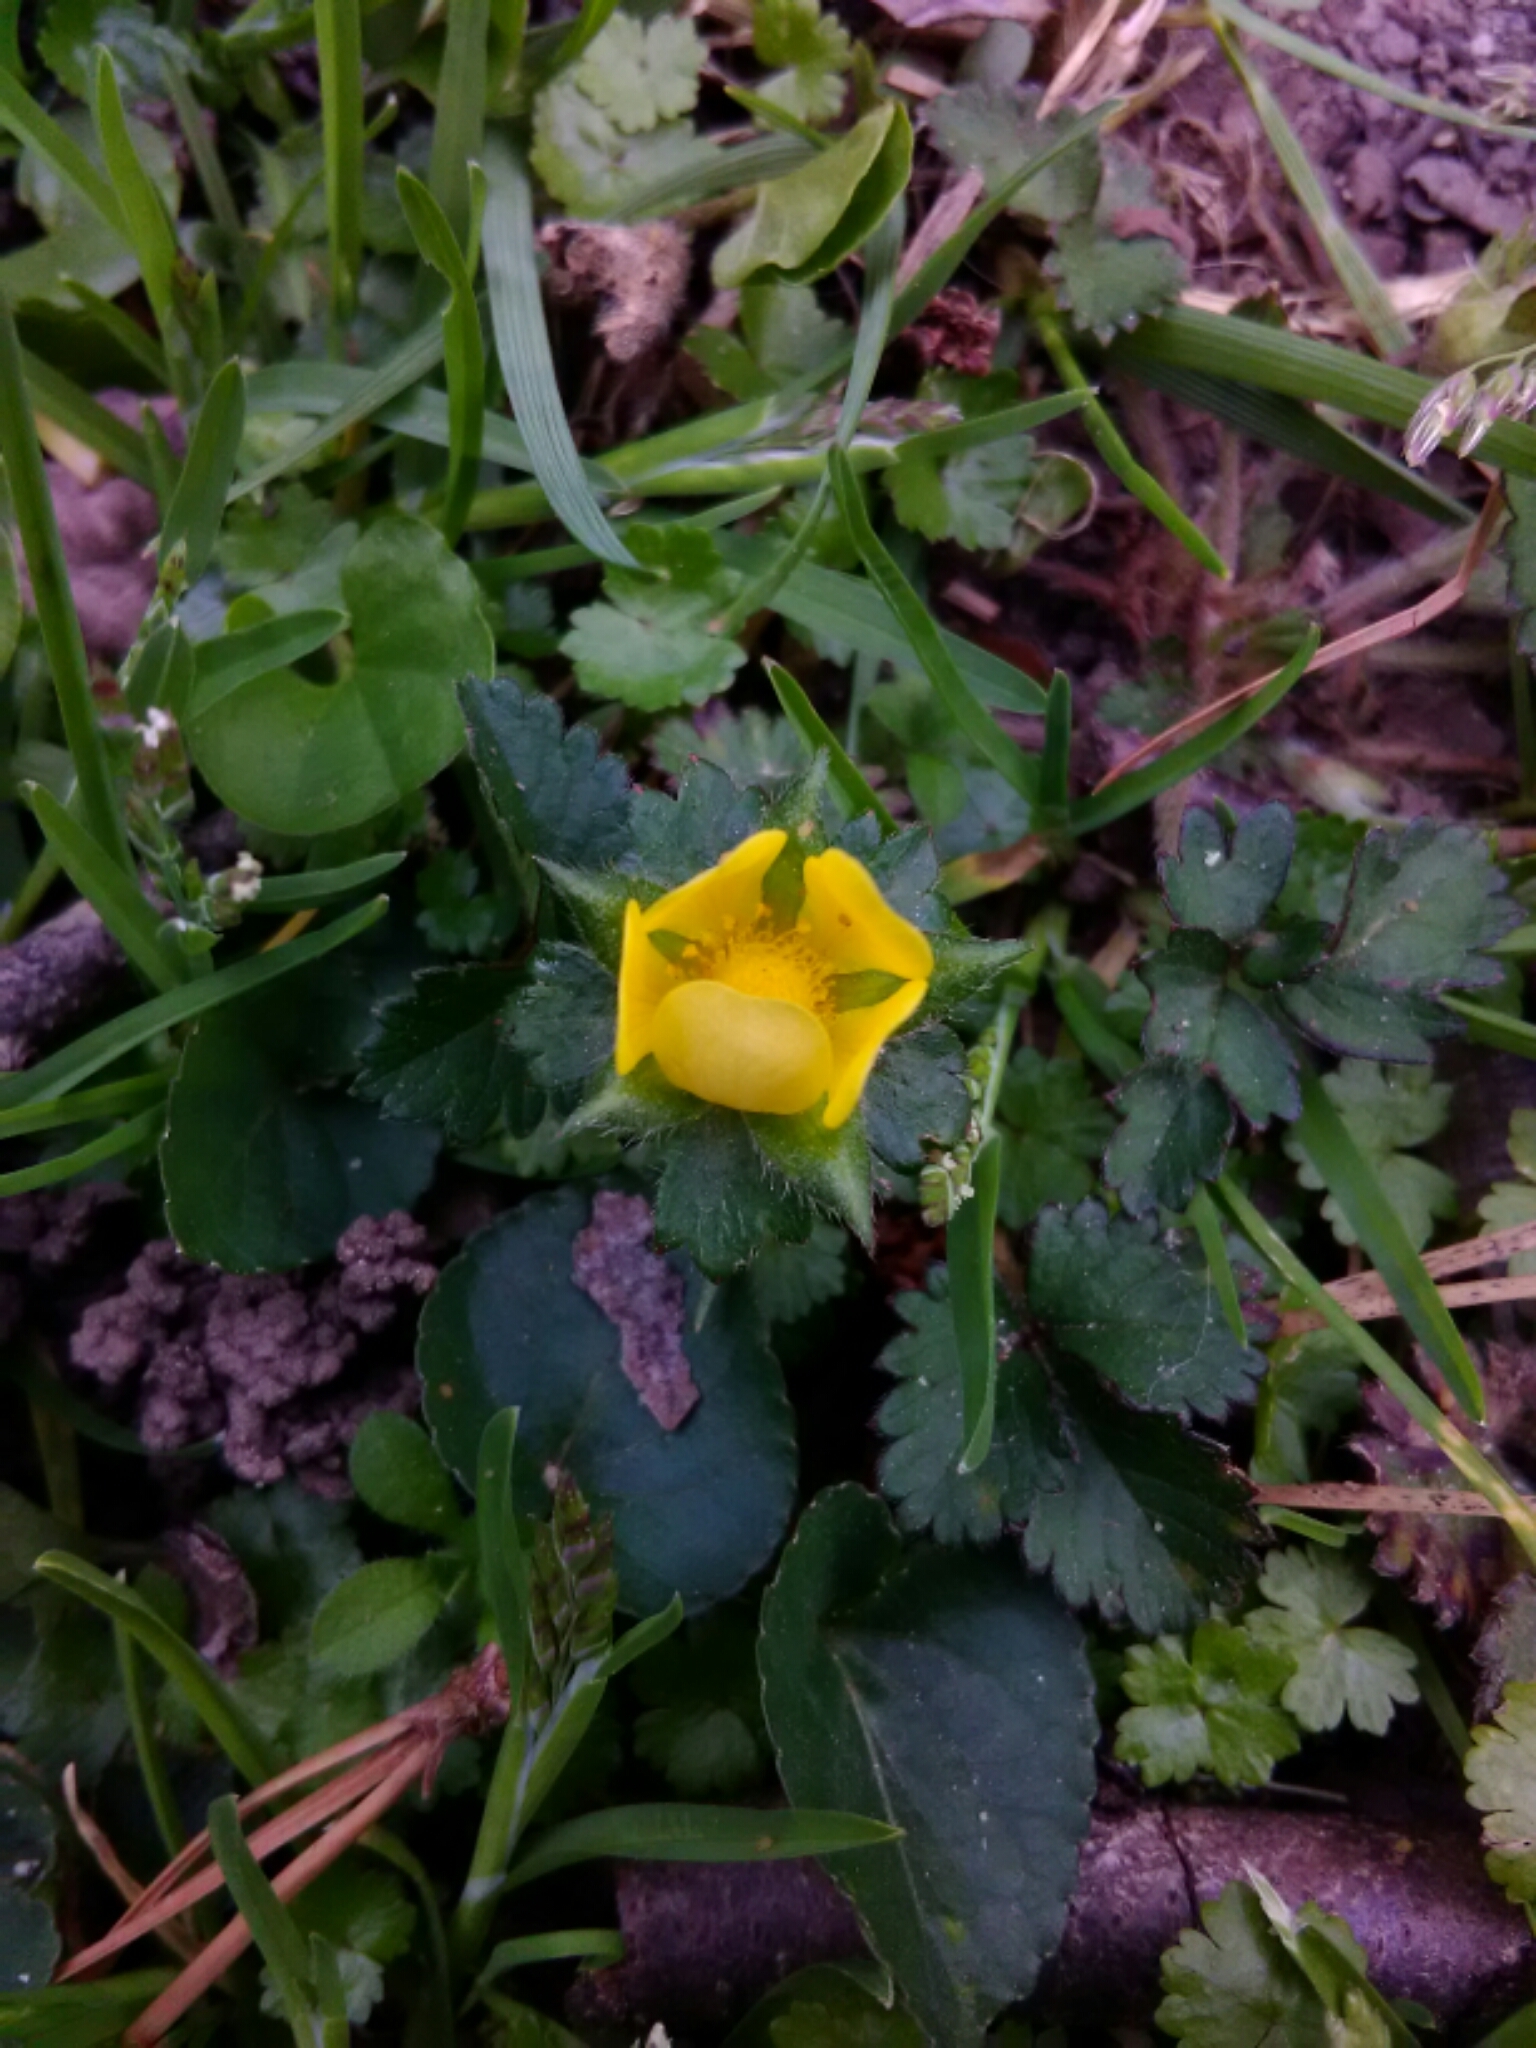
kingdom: Plantae
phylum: Tracheophyta
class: Magnoliopsida
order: Rosales
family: Rosaceae
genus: Potentilla
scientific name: Potentilla indica
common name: Yellow-flowered strawberry
